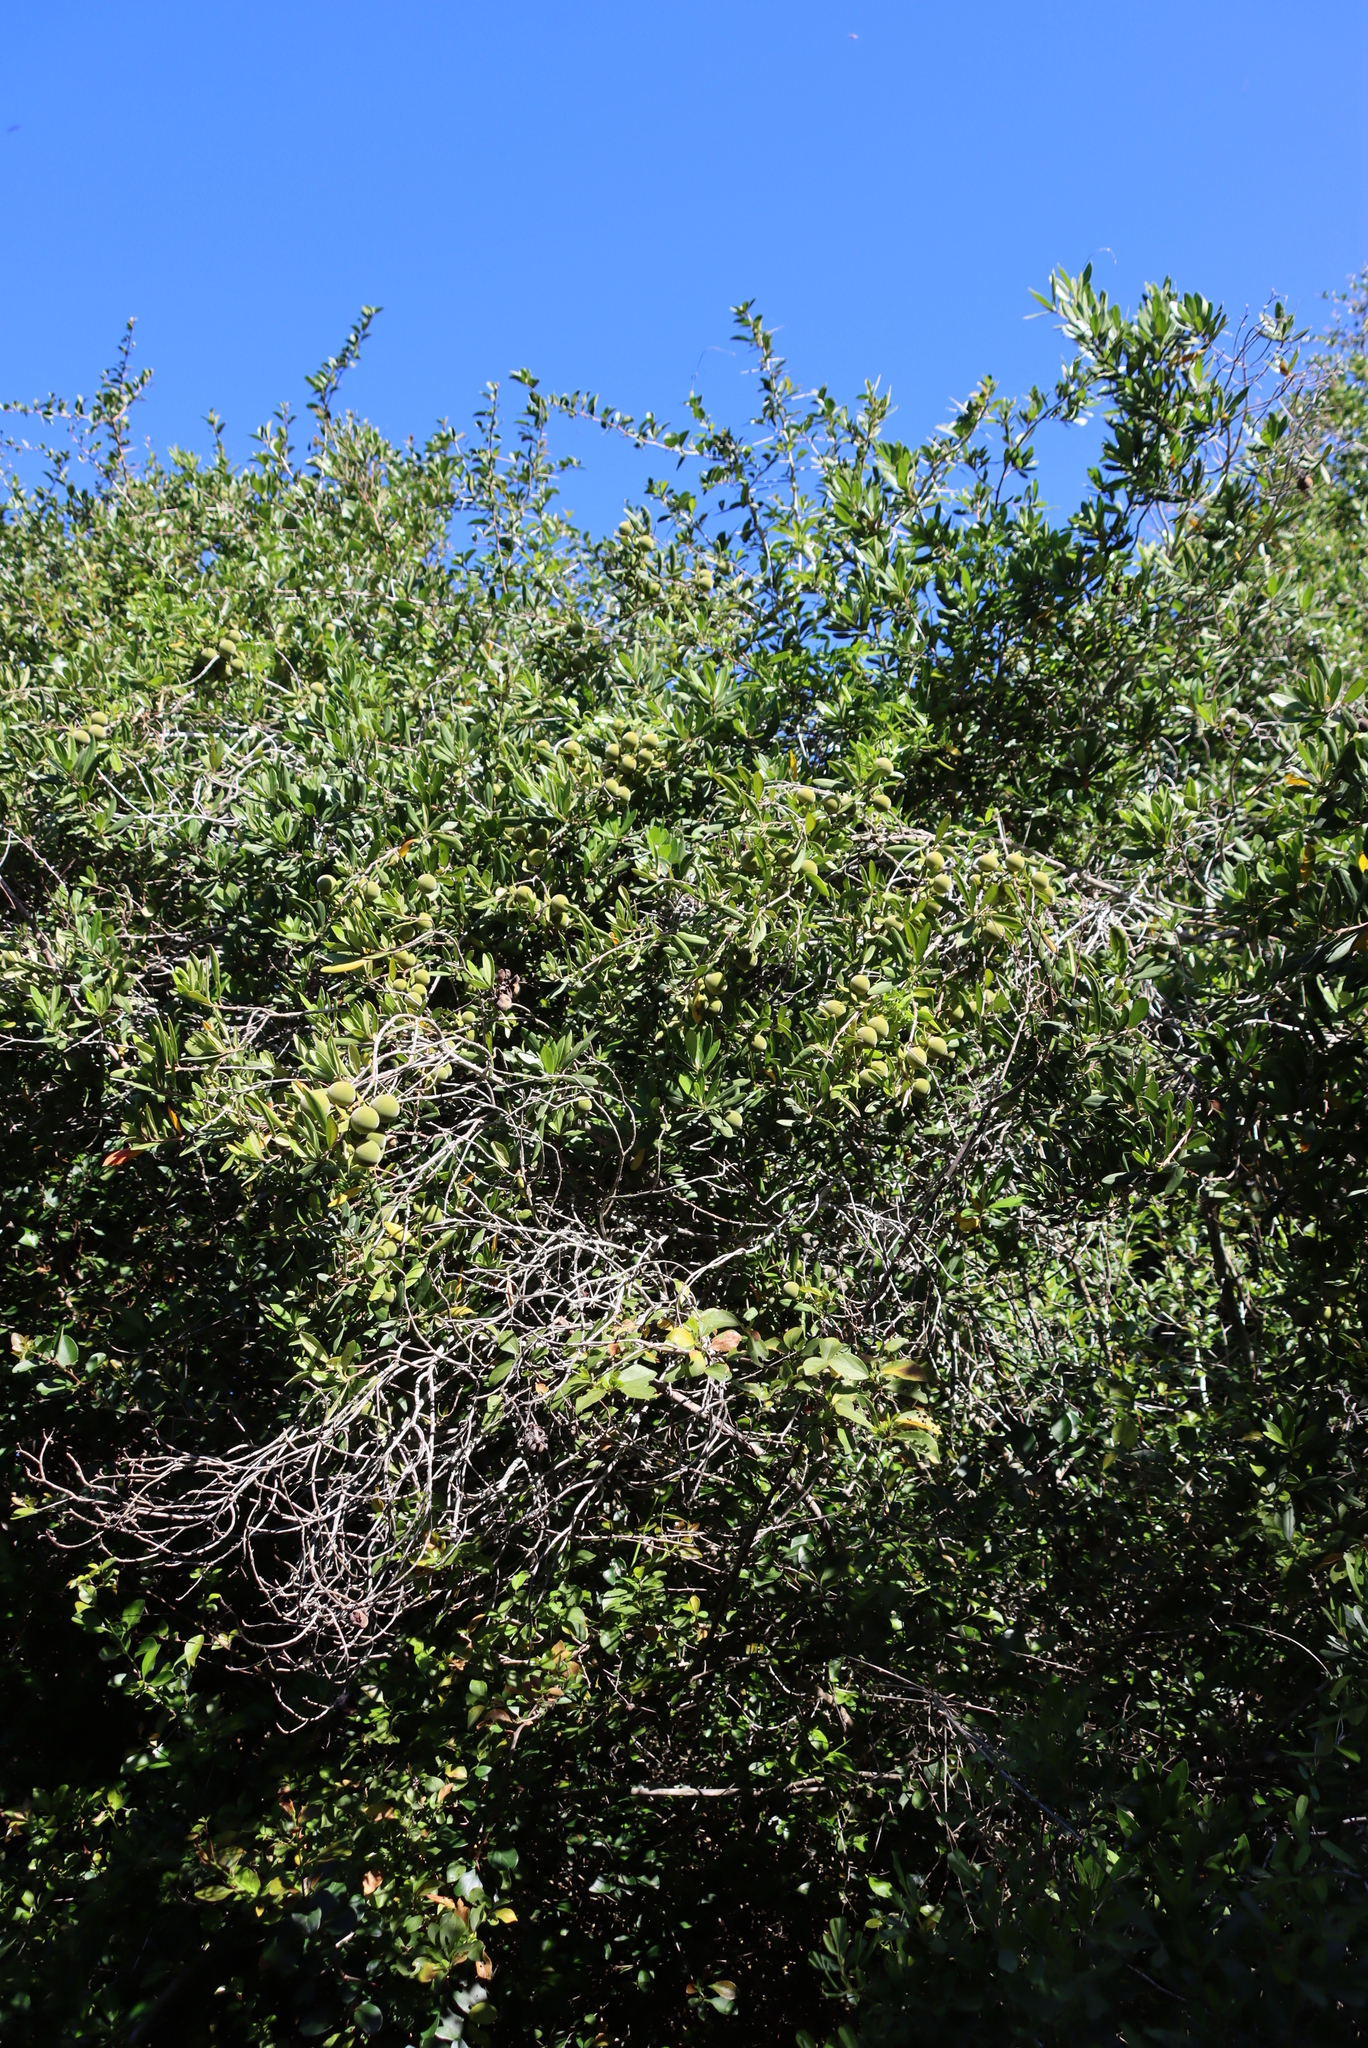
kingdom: Plantae
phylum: Tracheophyta
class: Magnoliopsida
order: Ericales
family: Ebenaceae
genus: Diospyros
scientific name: Diospyros dichrophylla
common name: Common star-apple
